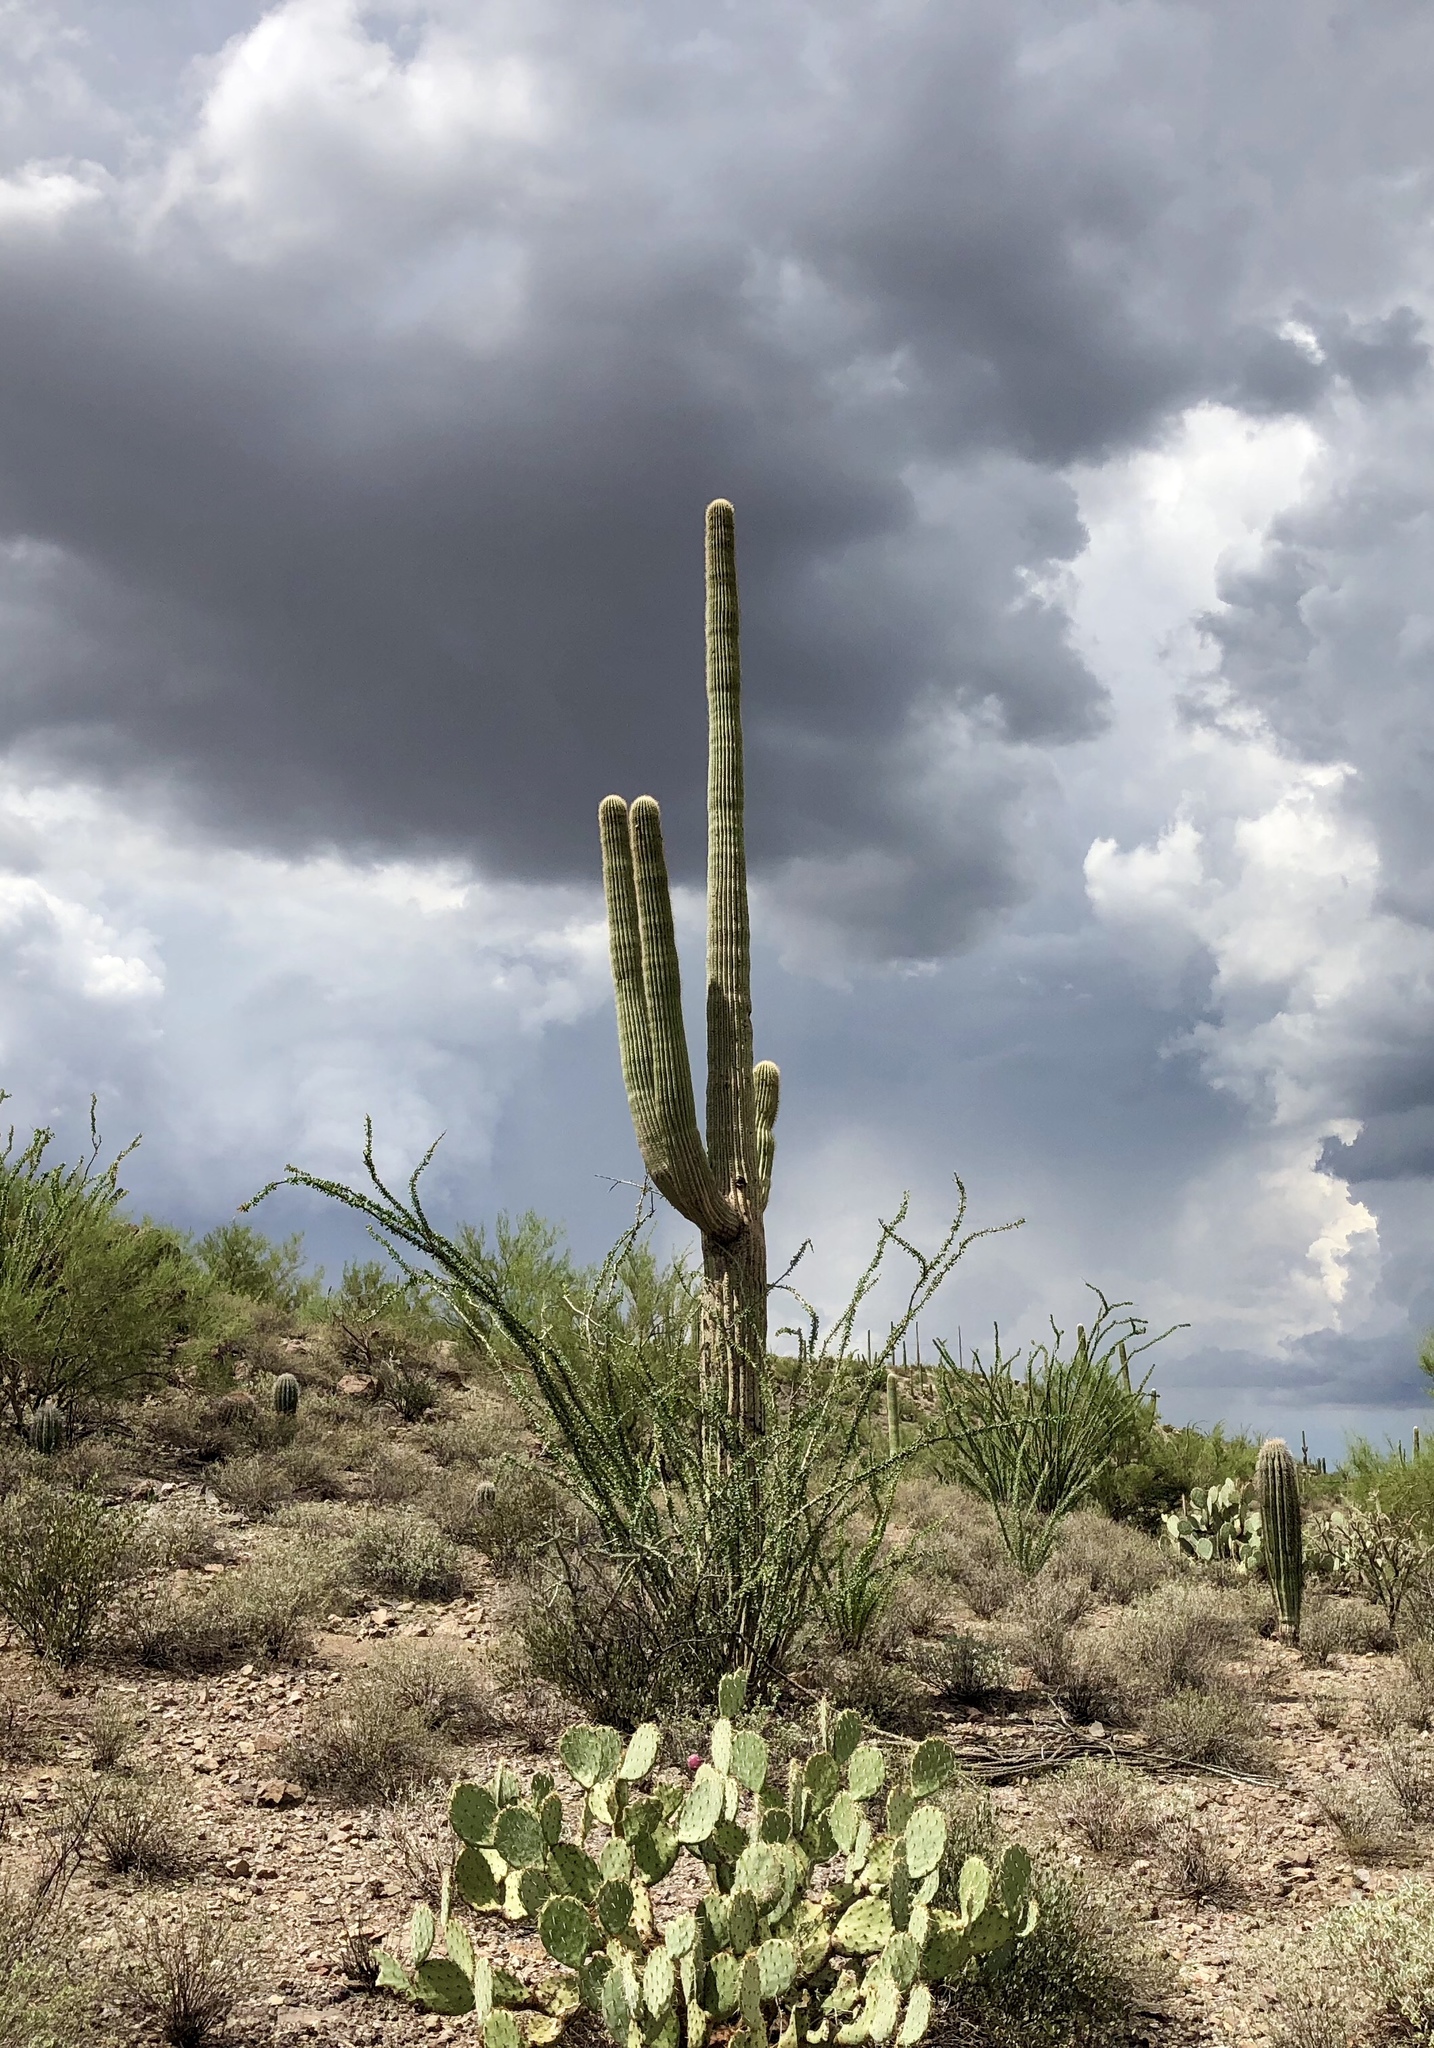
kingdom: Plantae
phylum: Tracheophyta
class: Magnoliopsida
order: Caryophyllales
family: Cactaceae
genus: Carnegiea
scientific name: Carnegiea gigantea
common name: Saguaro
